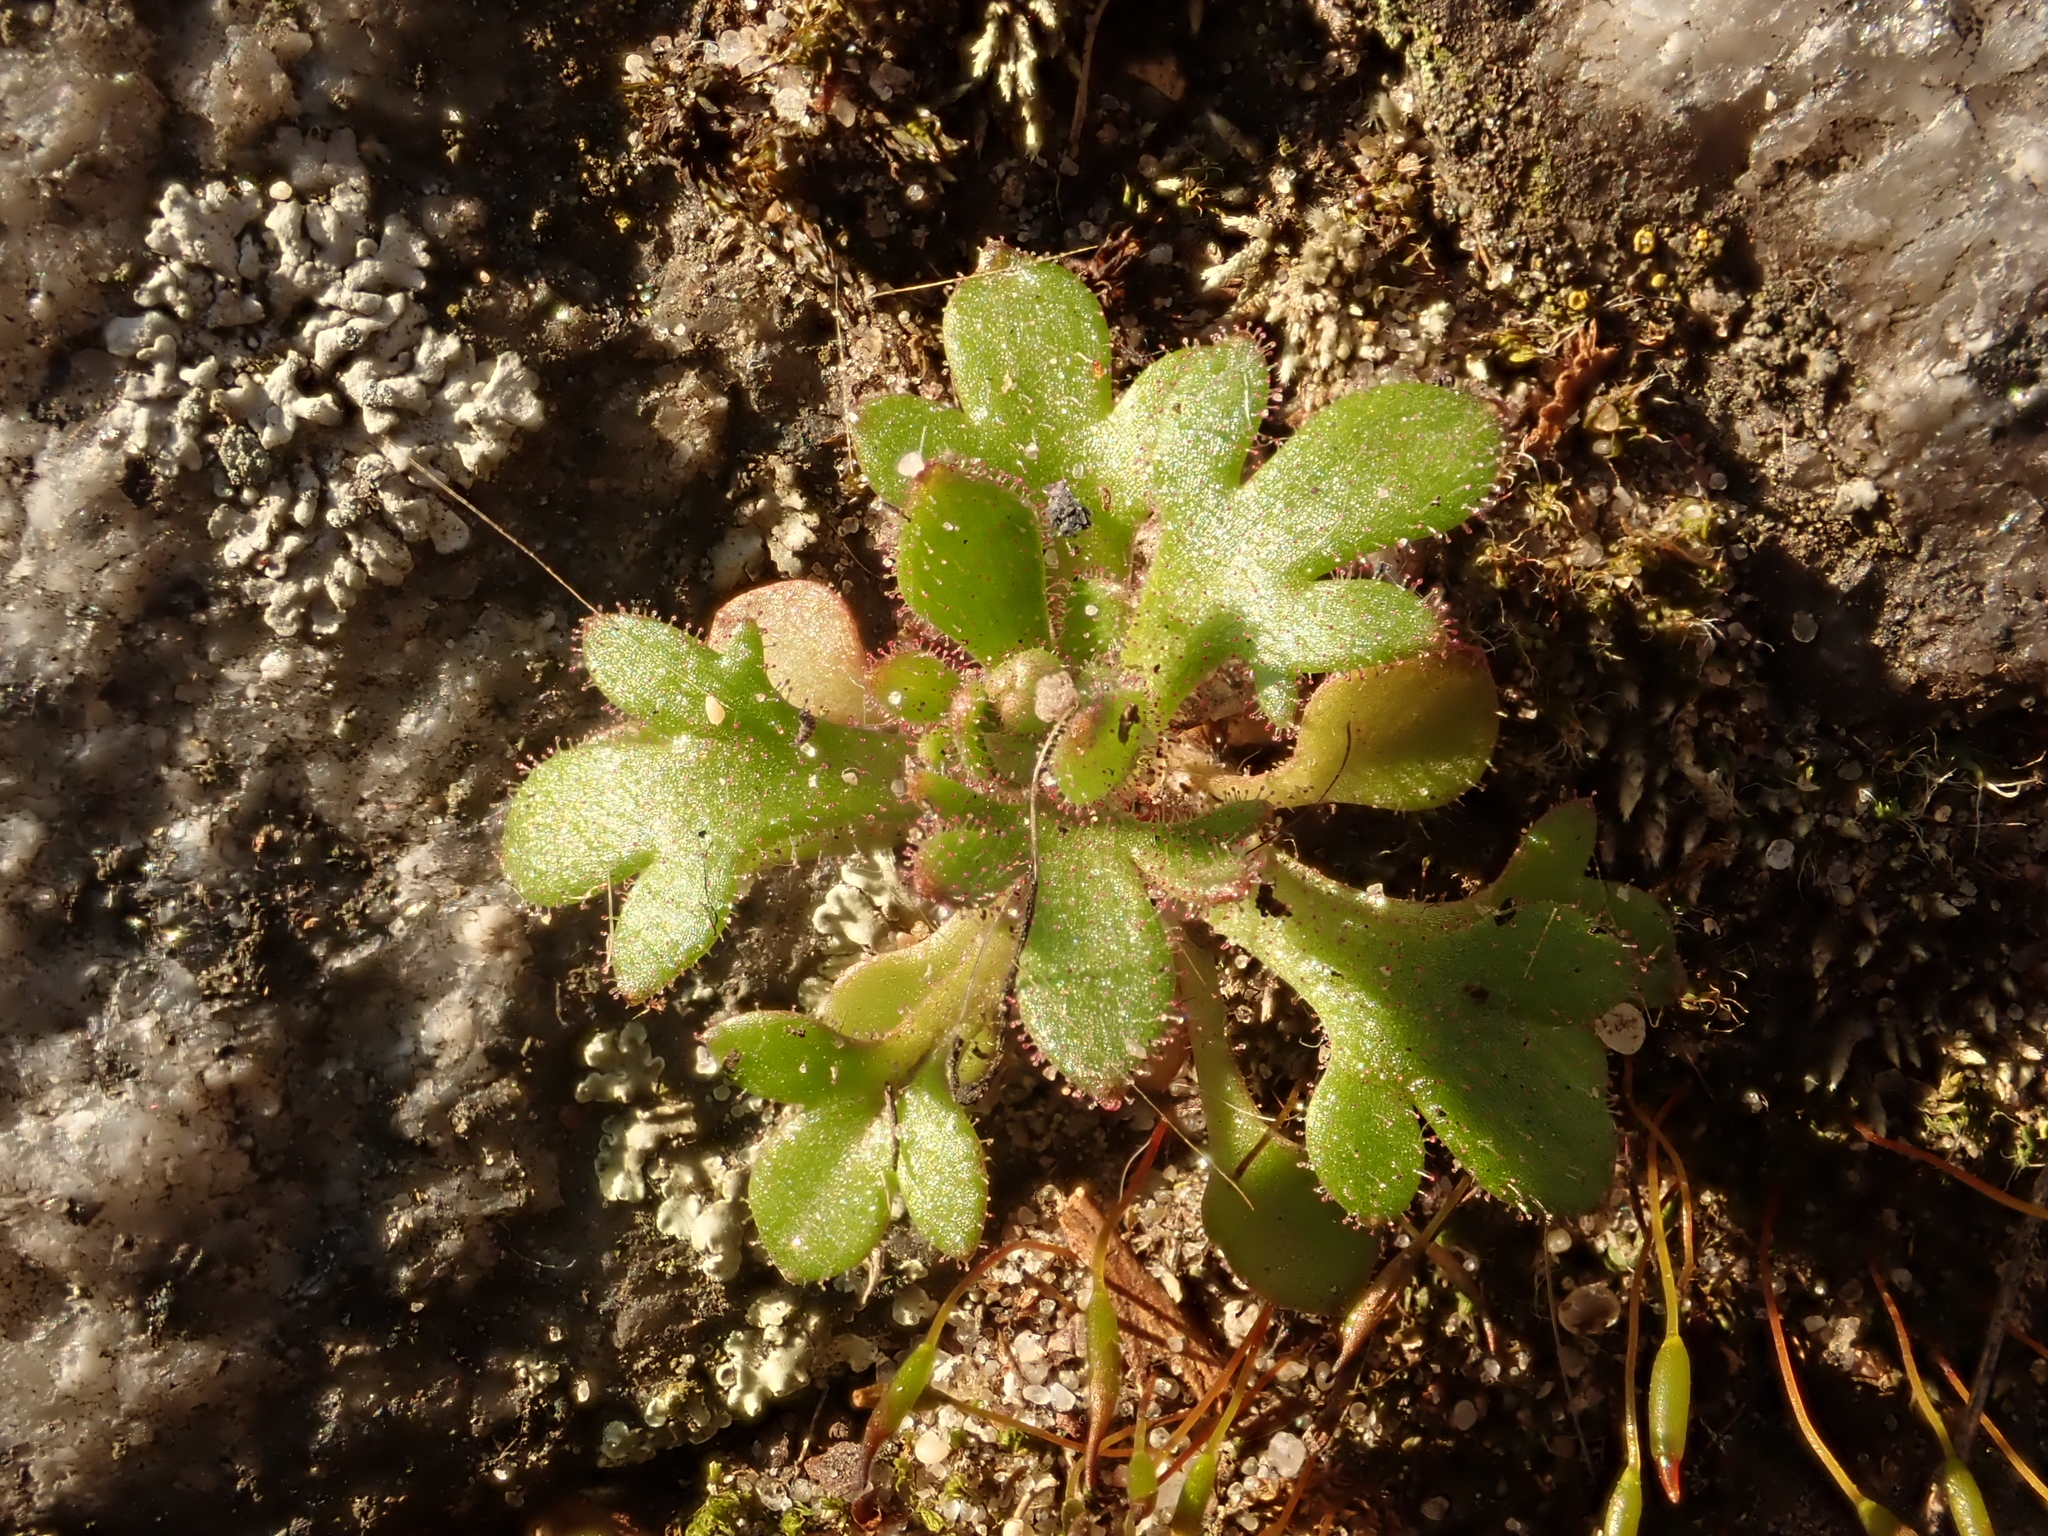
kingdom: Plantae
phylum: Tracheophyta
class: Magnoliopsida
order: Saxifragales
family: Saxifragaceae
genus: Saxifraga
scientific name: Saxifraga tridactylites
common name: Rue-leaved saxifrage
